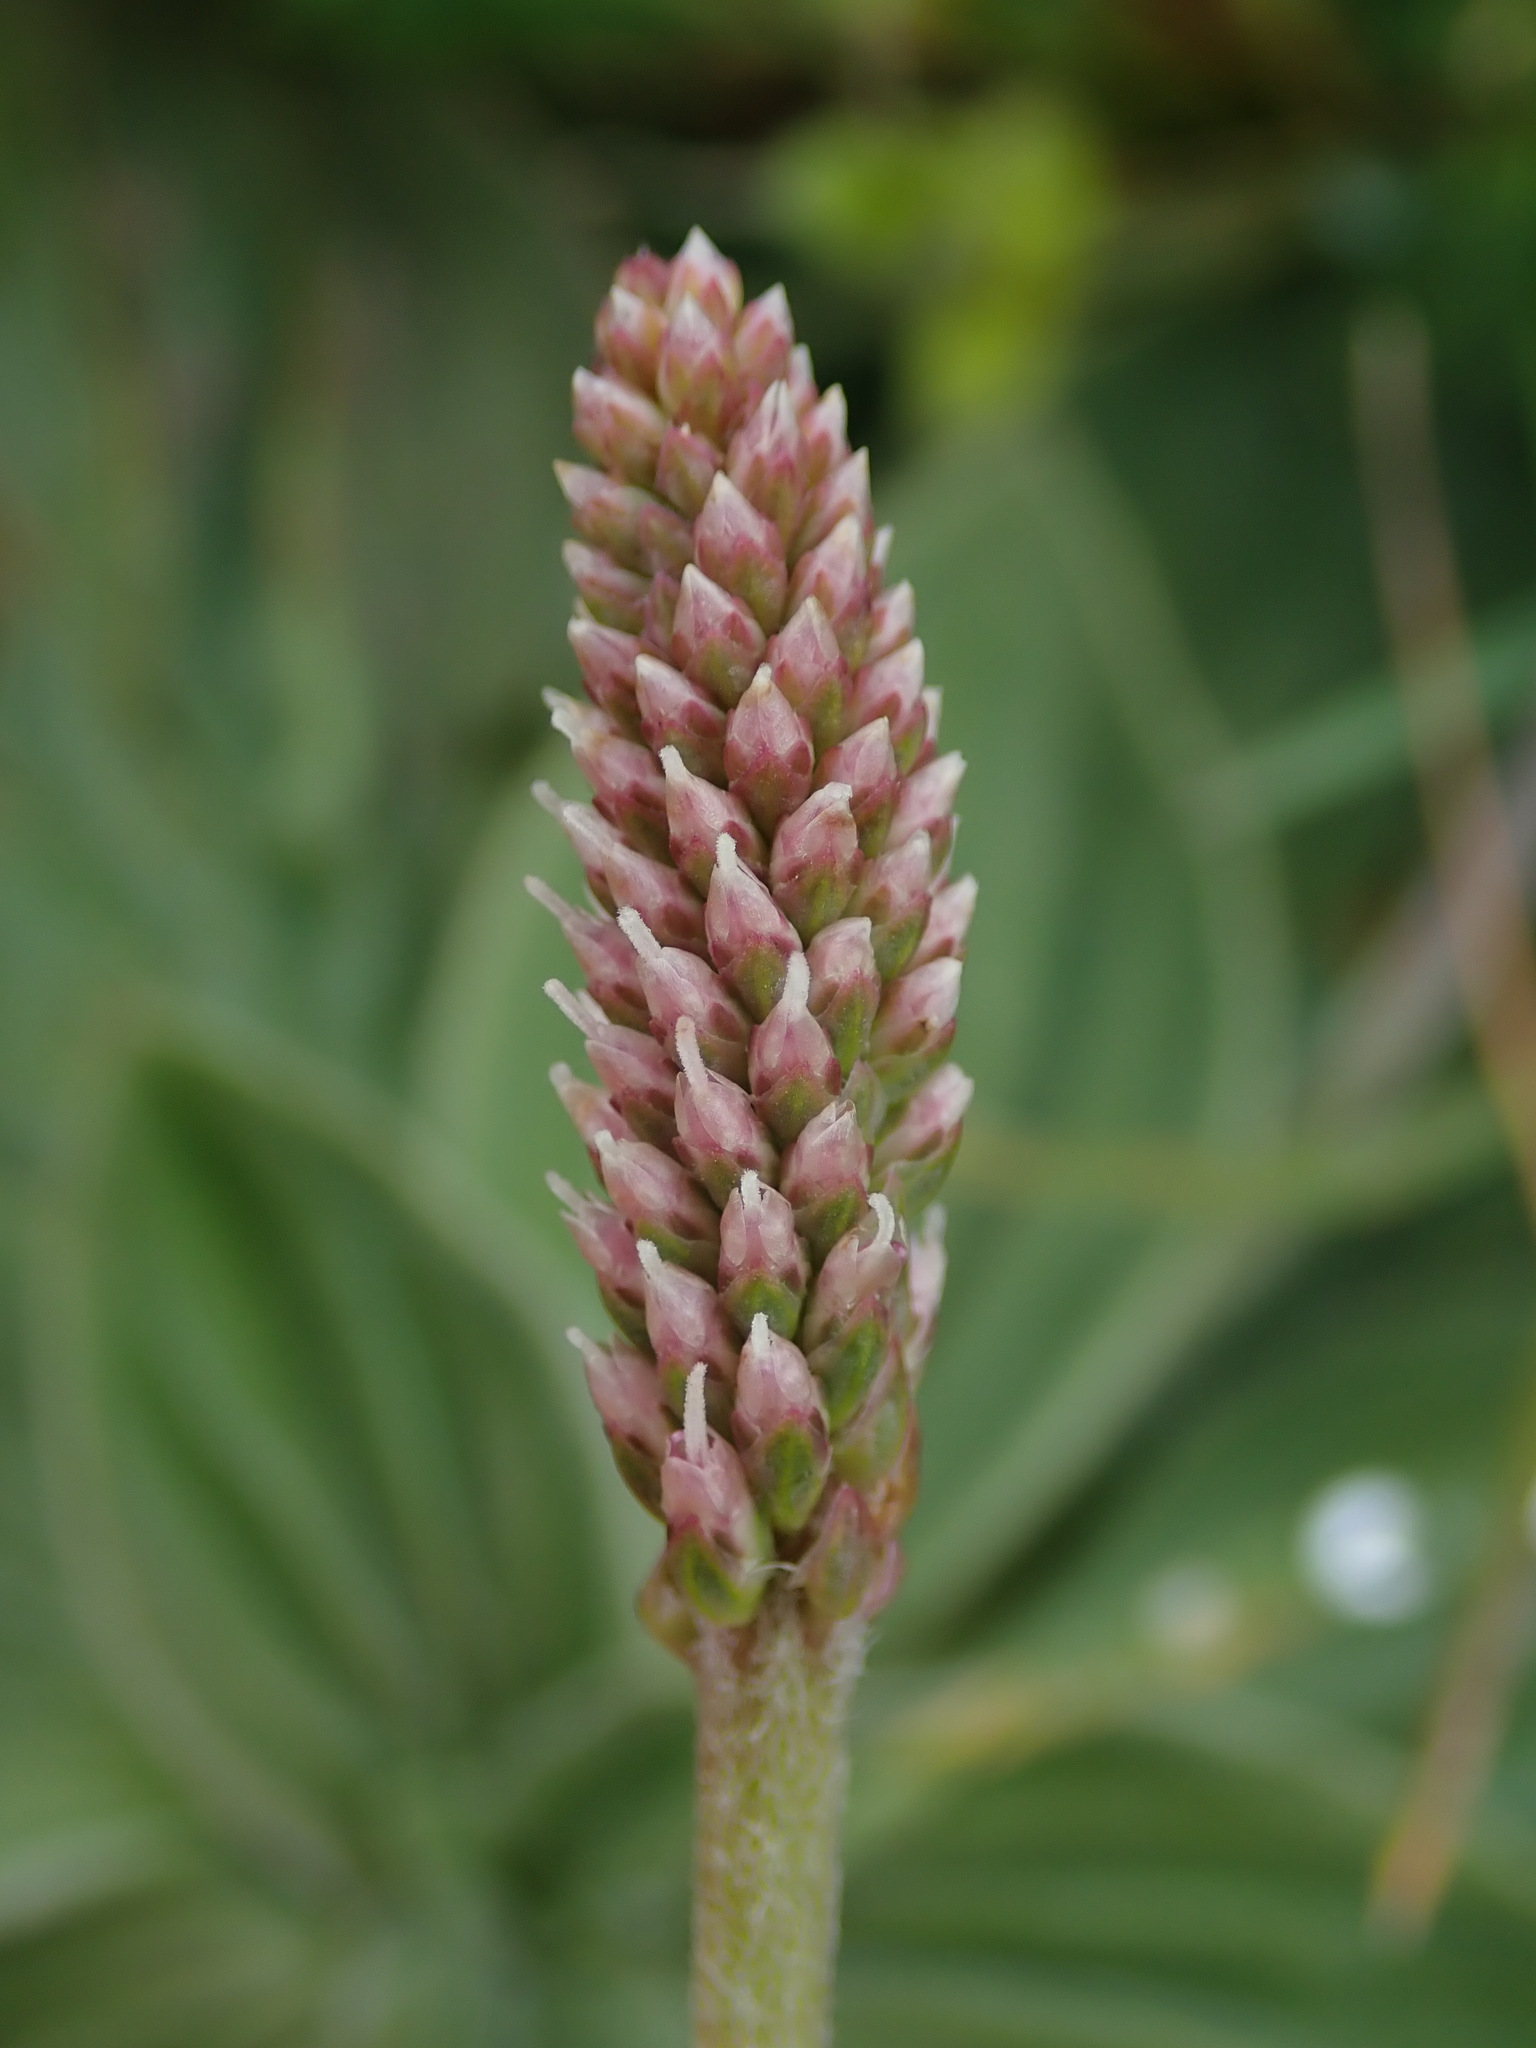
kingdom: Plantae
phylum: Tracheophyta
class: Magnoliopsida
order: Lamiales
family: Plantaginaceae
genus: Plantago
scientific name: Plantago media
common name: Hoary plantain
